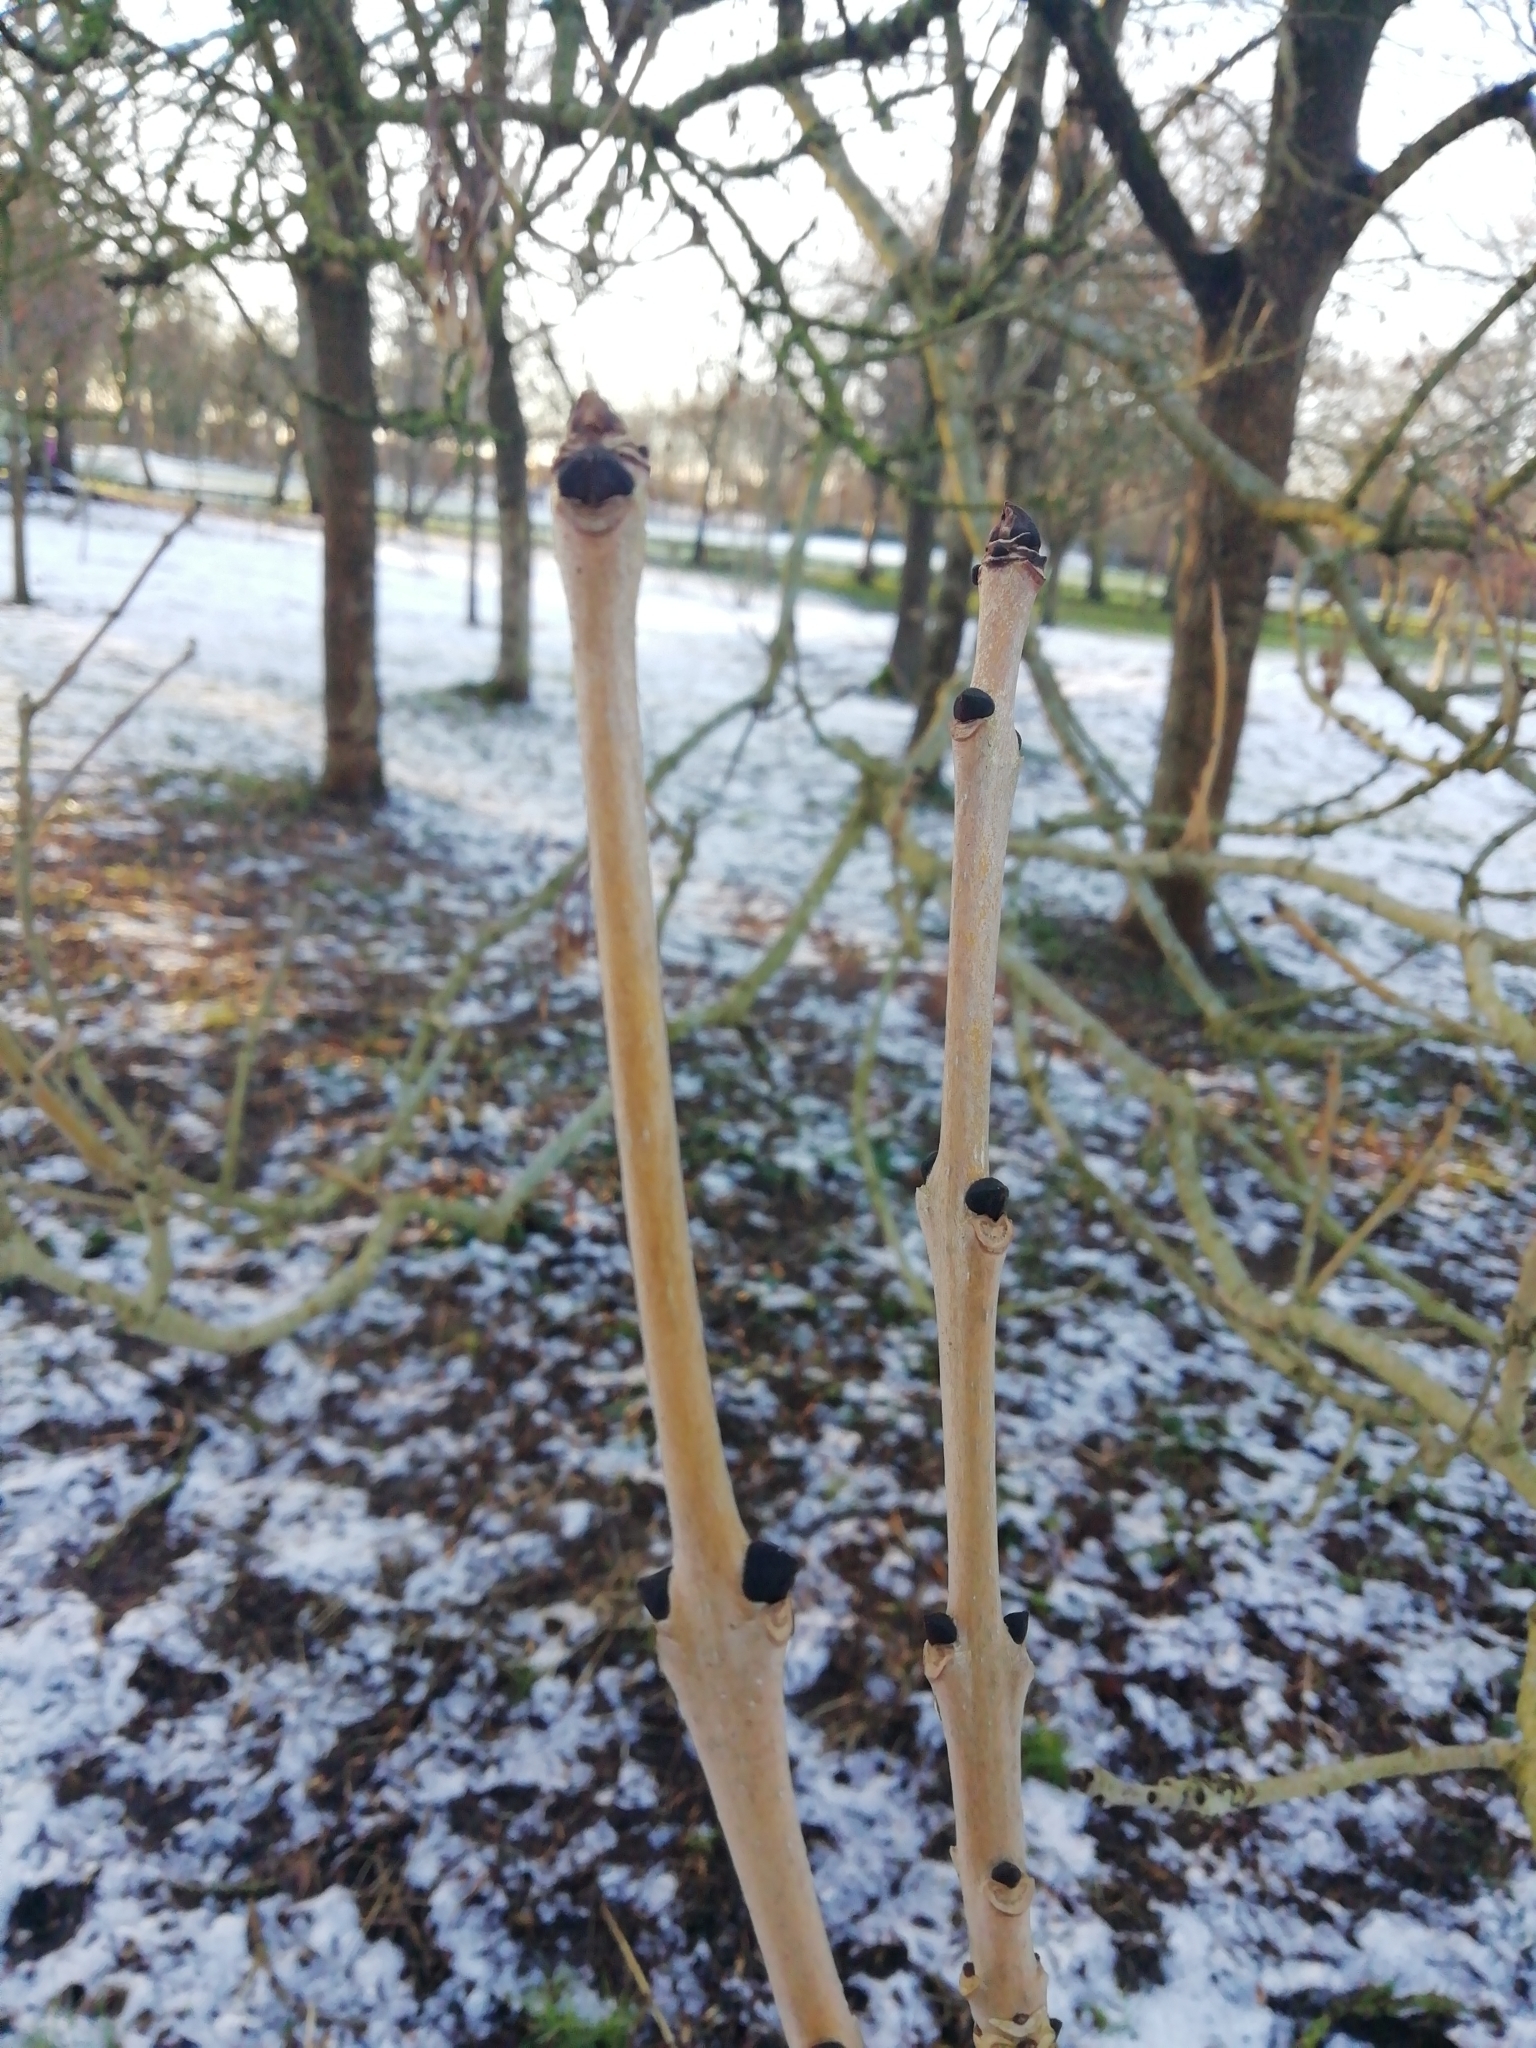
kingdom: Plantae
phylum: Tracheophyta
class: Magnoliopsida
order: Lamiales
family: Oleaceae
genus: Fraxinus
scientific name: Fraxinus excelsior
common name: European ash
